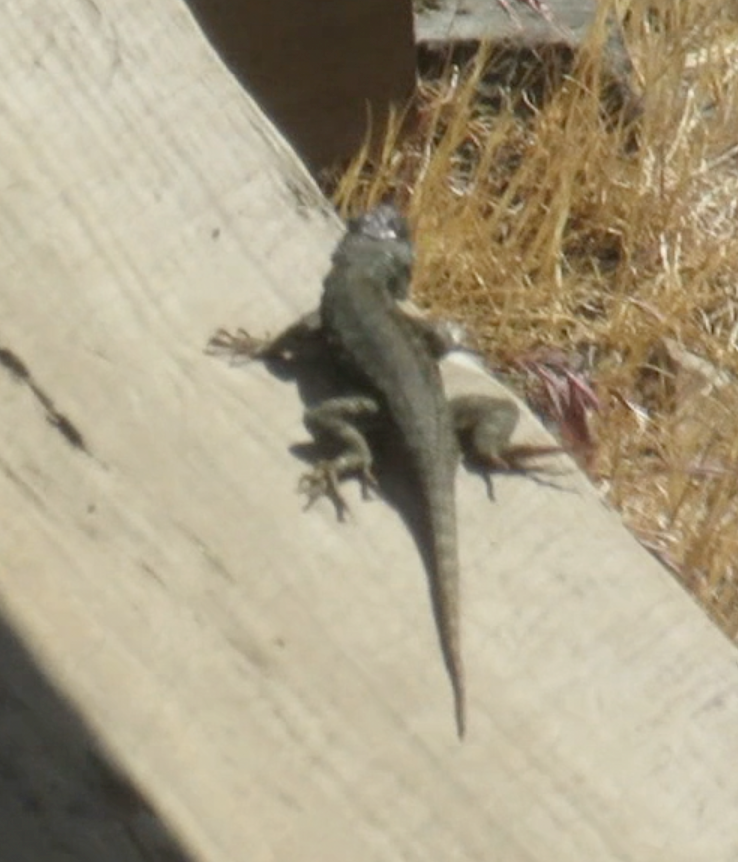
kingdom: Animalia
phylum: Chordata
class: Squamata
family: Phrynosomatidae
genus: Sceloporus
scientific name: Sceloporus occidentalis
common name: Western fence lizard
